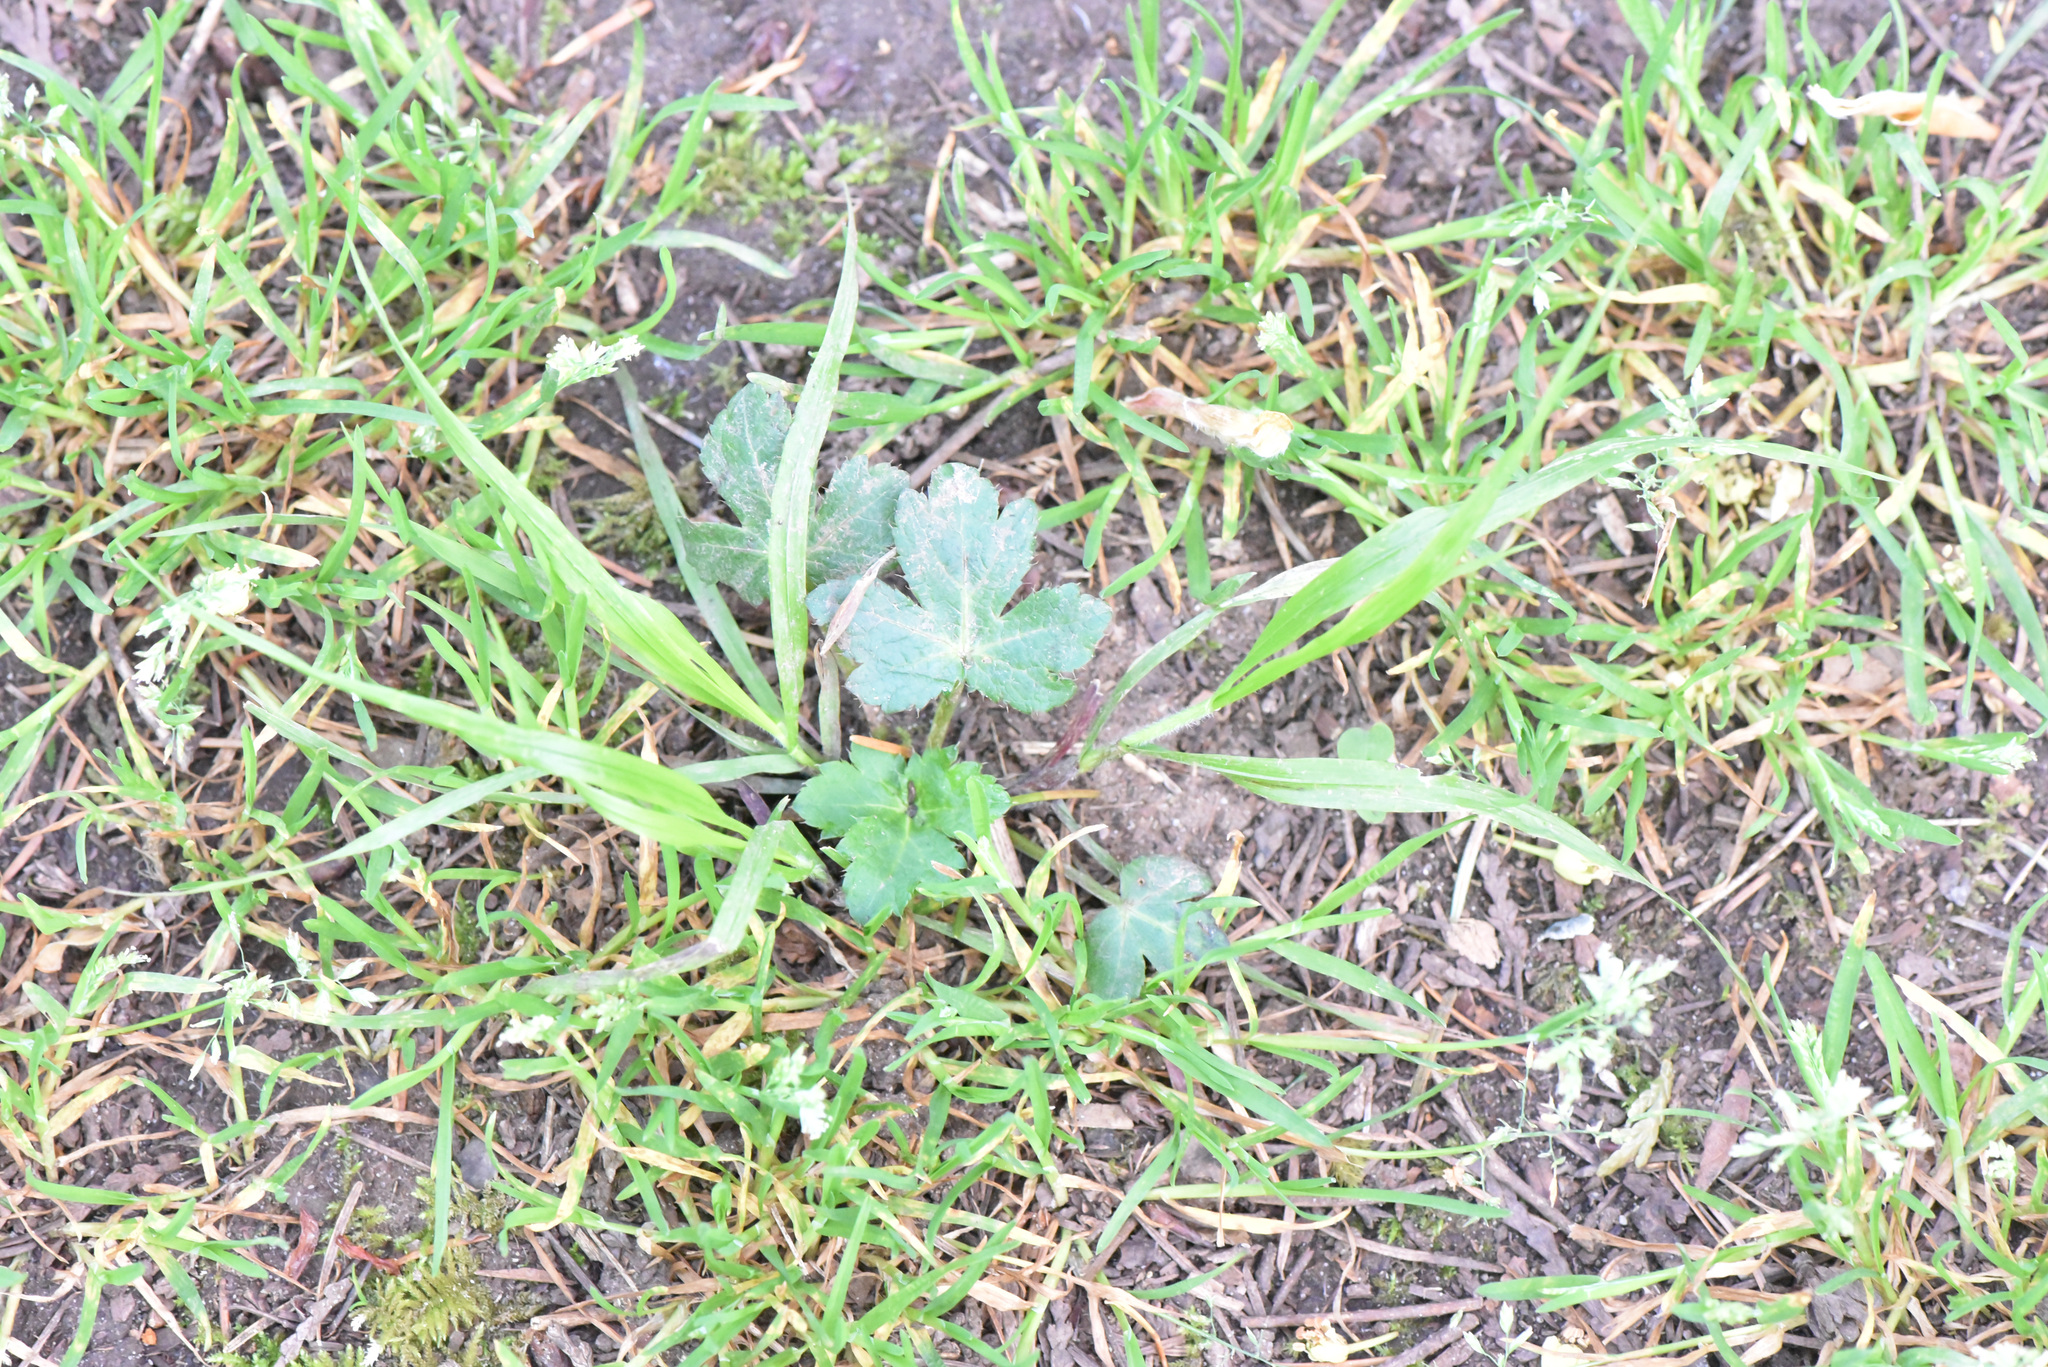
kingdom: Plantae
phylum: Tracheophyta
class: Magnoliopsida
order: Apiales
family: Apiaceae
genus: Sanicula
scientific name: Sanicula crassicaulis
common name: Western snakeroot
